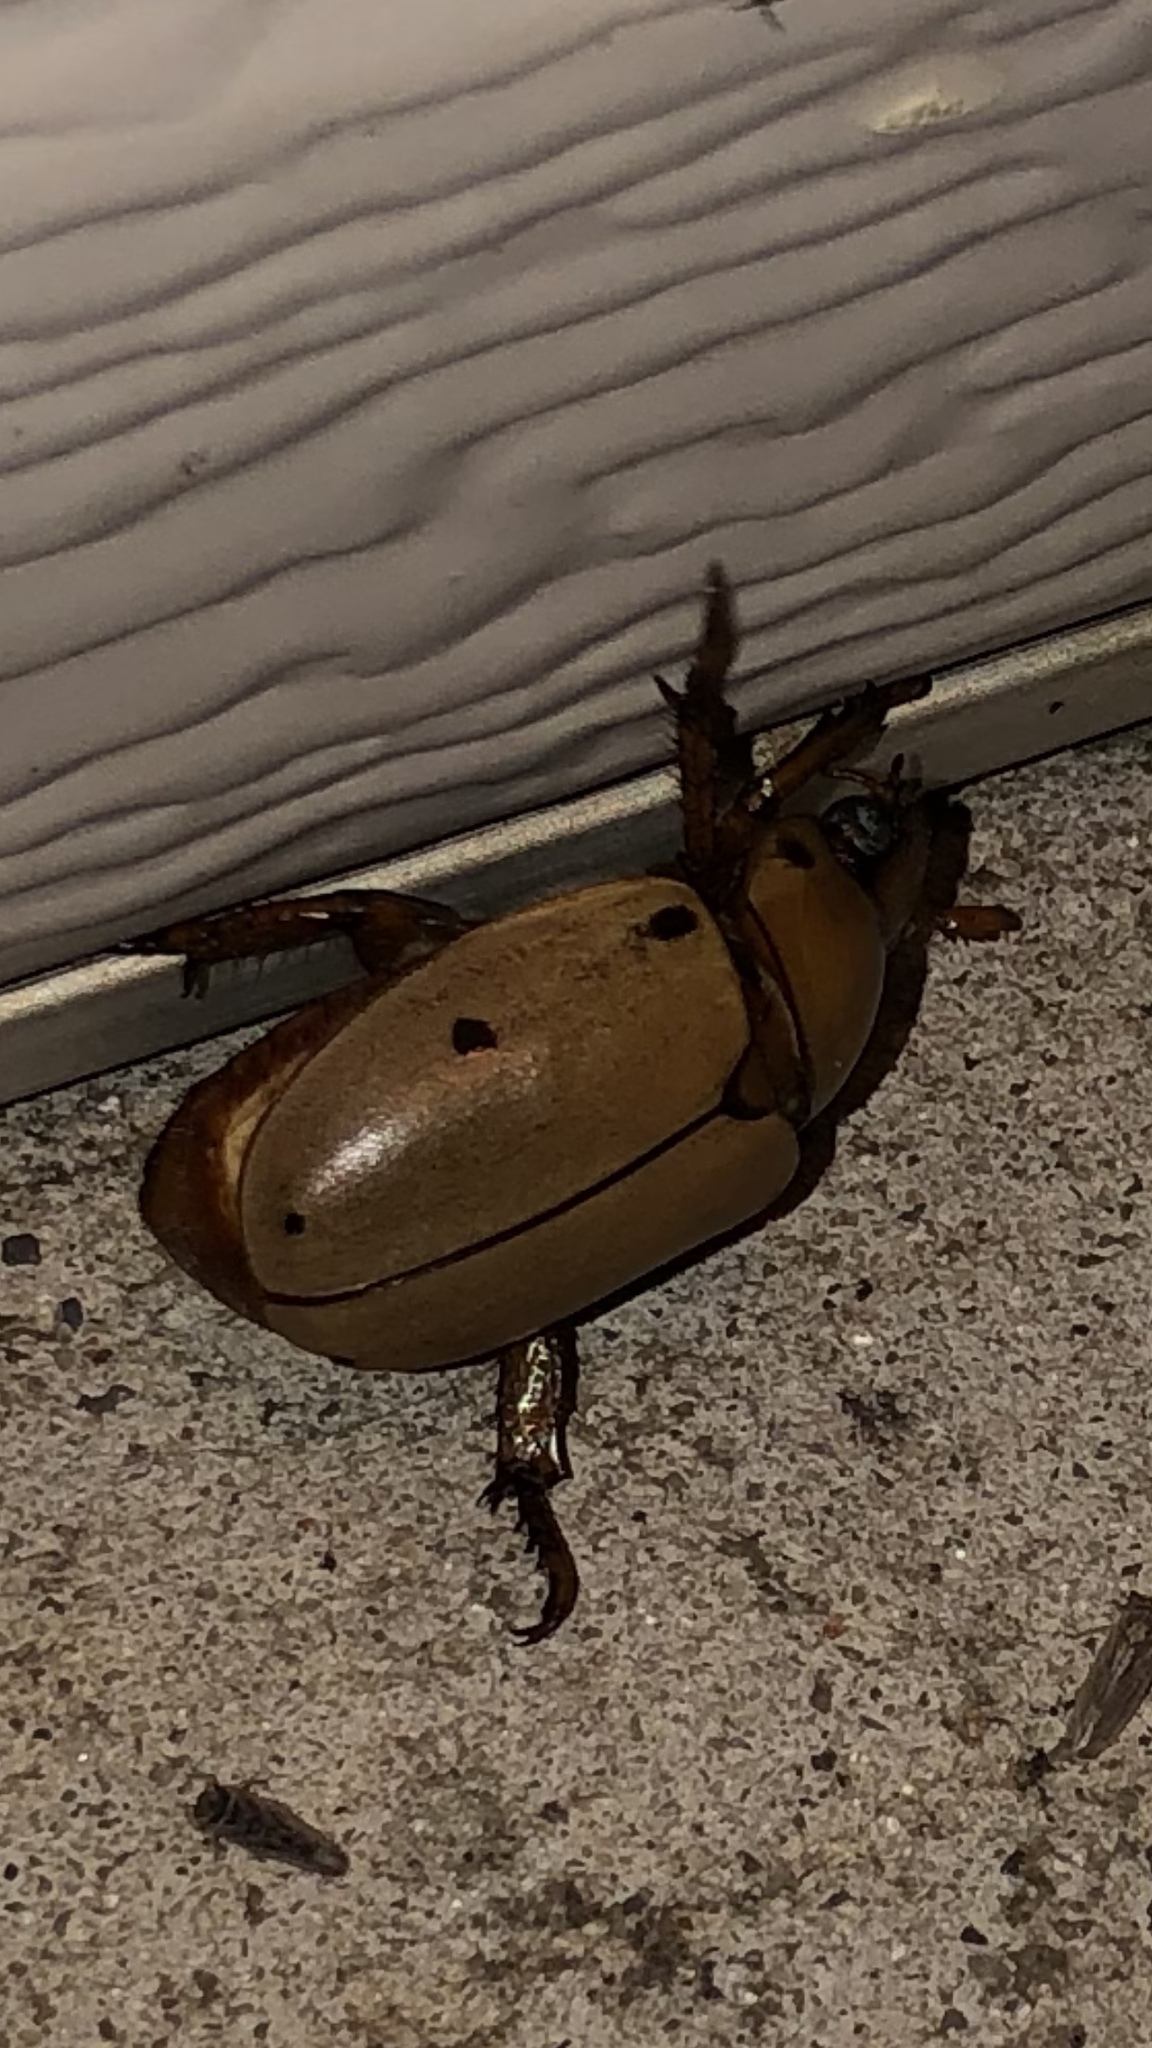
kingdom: Animalia
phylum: Arthropoda
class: Insecta
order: Coleoptera
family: Scarabaeidae
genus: Pelidnota
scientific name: Pelidnota punctata
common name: Grapevine beetle
